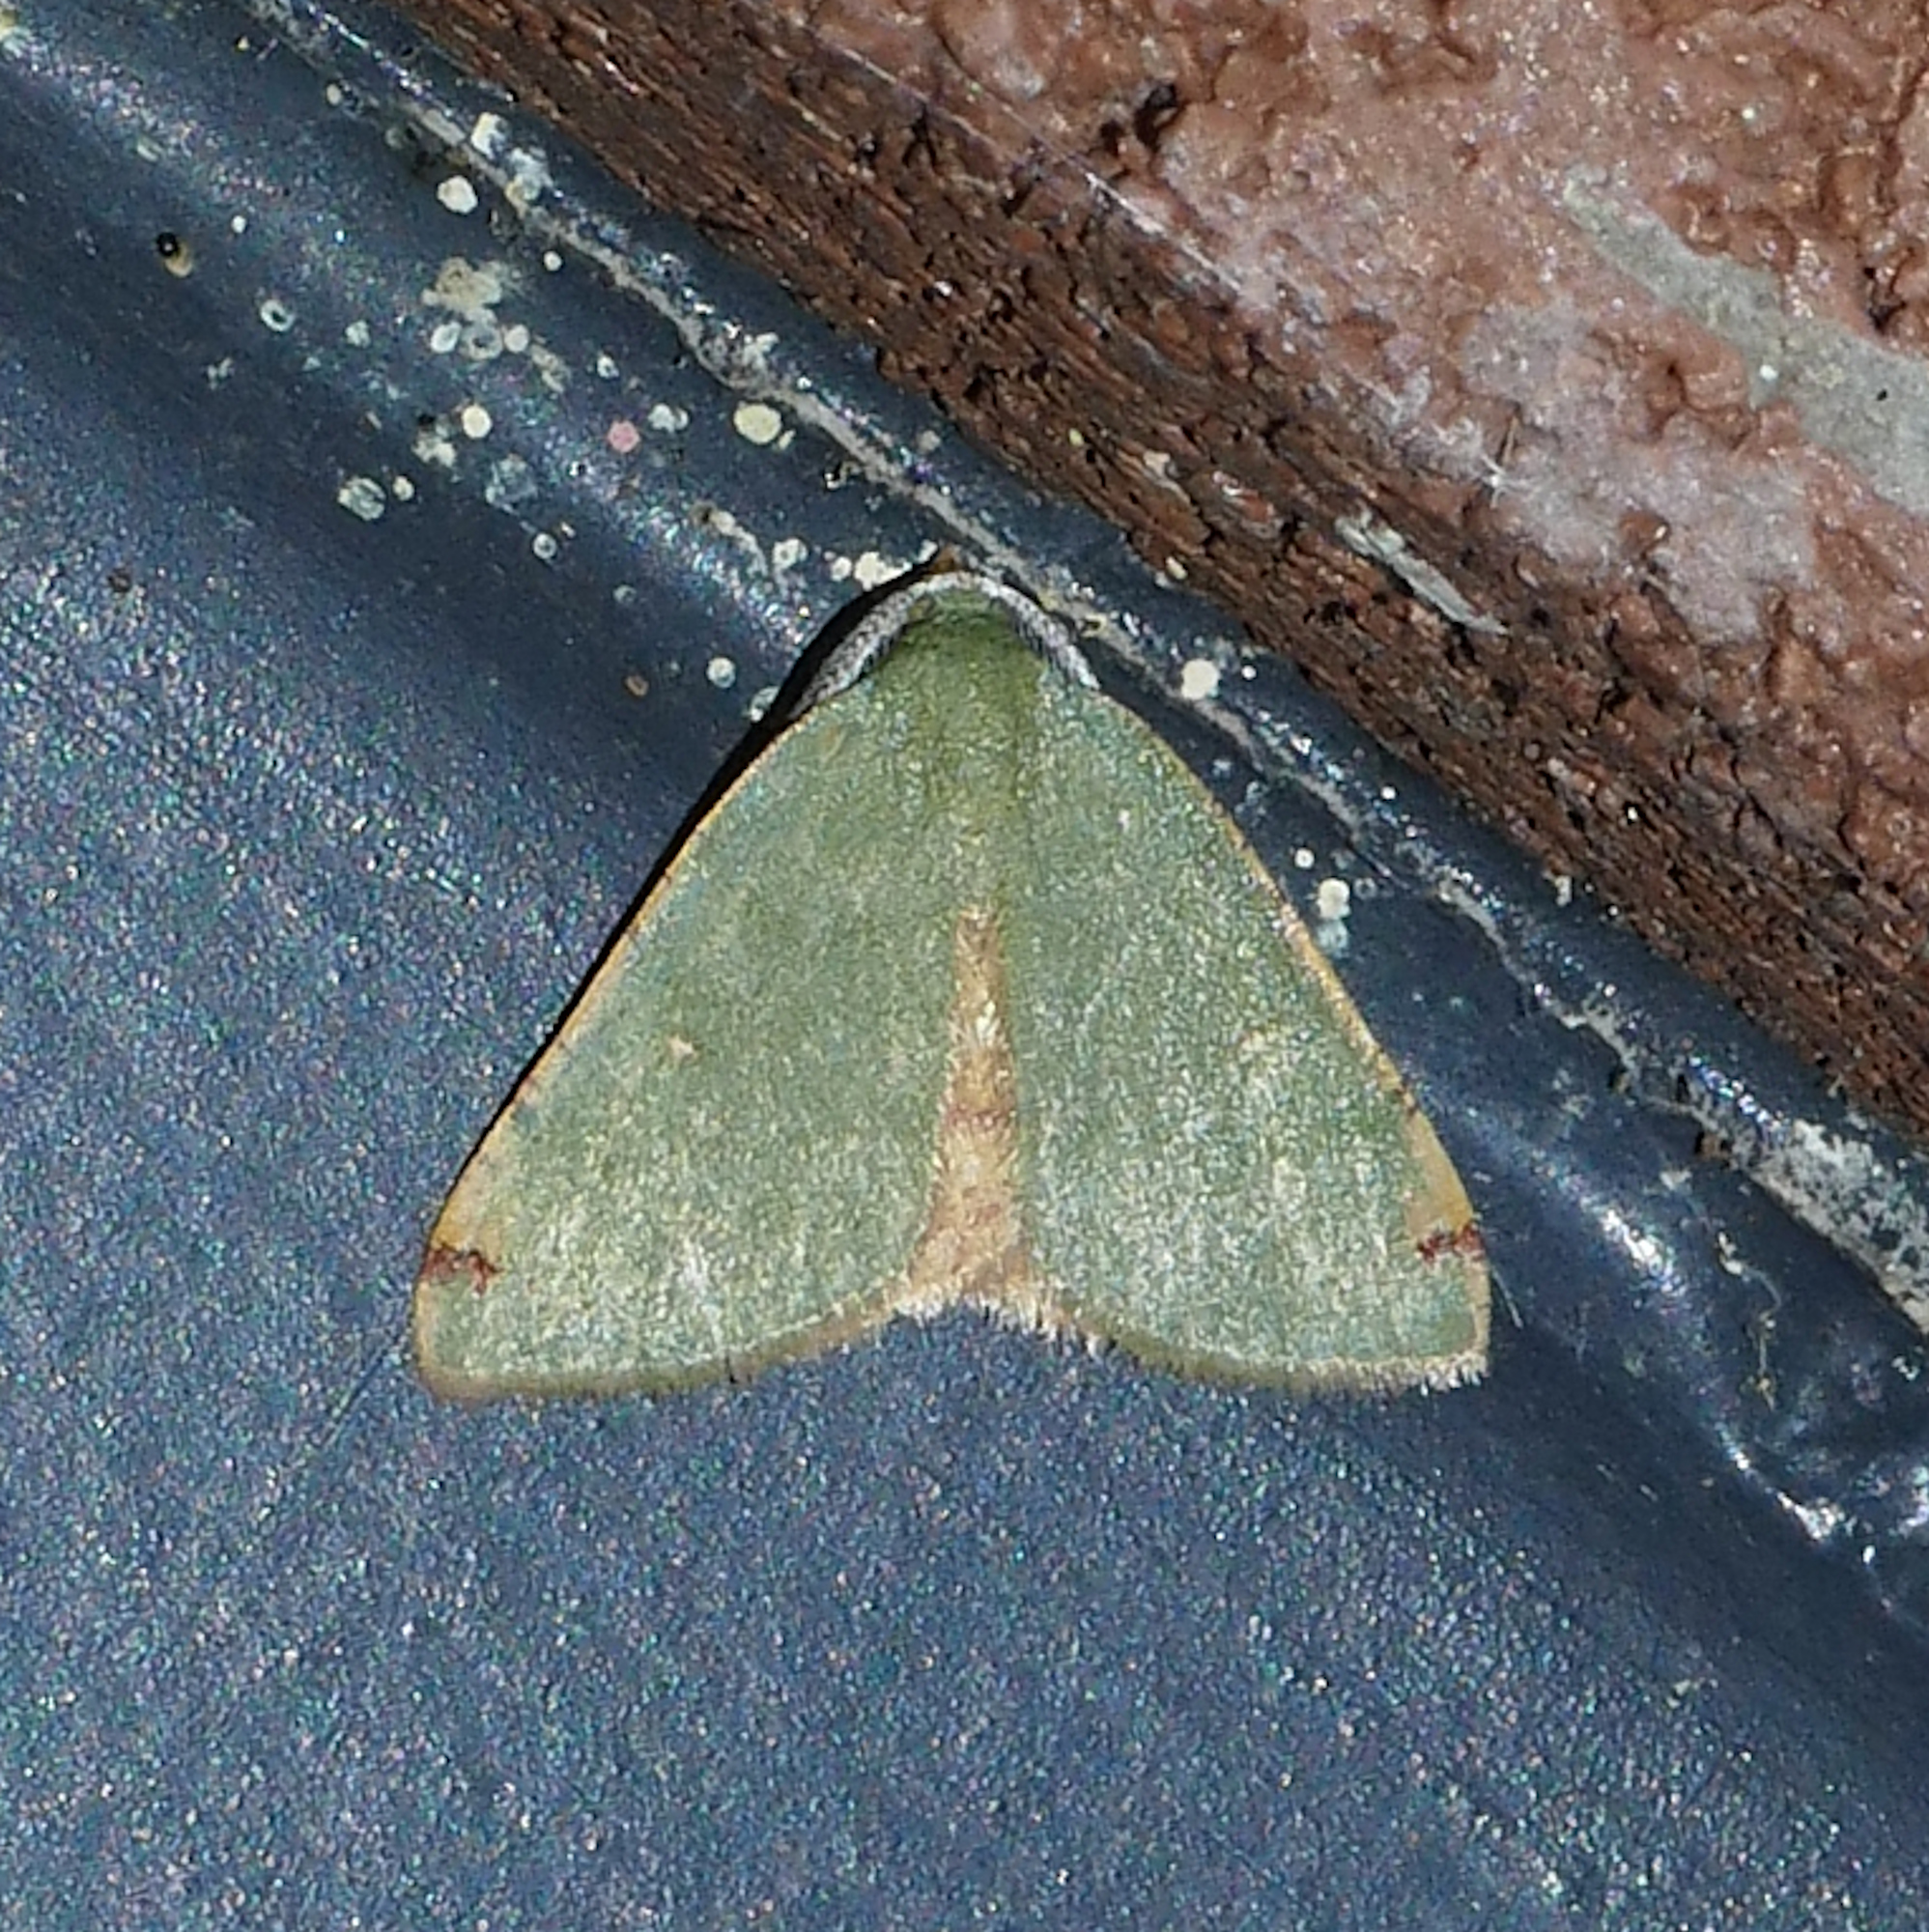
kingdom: Animalia
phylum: Arthropoda
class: Insecta
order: Lepidoptera
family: Geometridae
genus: Chloraspilates
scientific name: Chloraspilates bicoloraria
